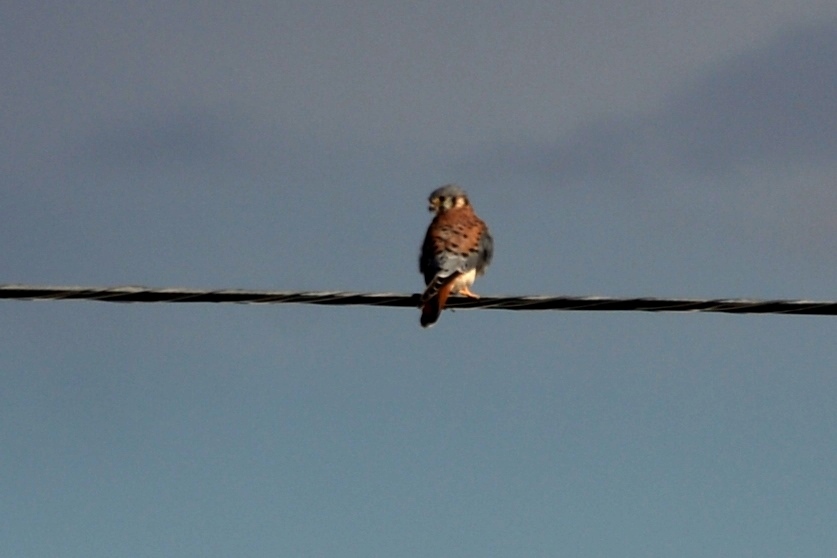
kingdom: Animalia
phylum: Chordata
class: Aves
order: Falconiformes
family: Falconidae
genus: Falco
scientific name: Falco sparverius
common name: American kestrel
